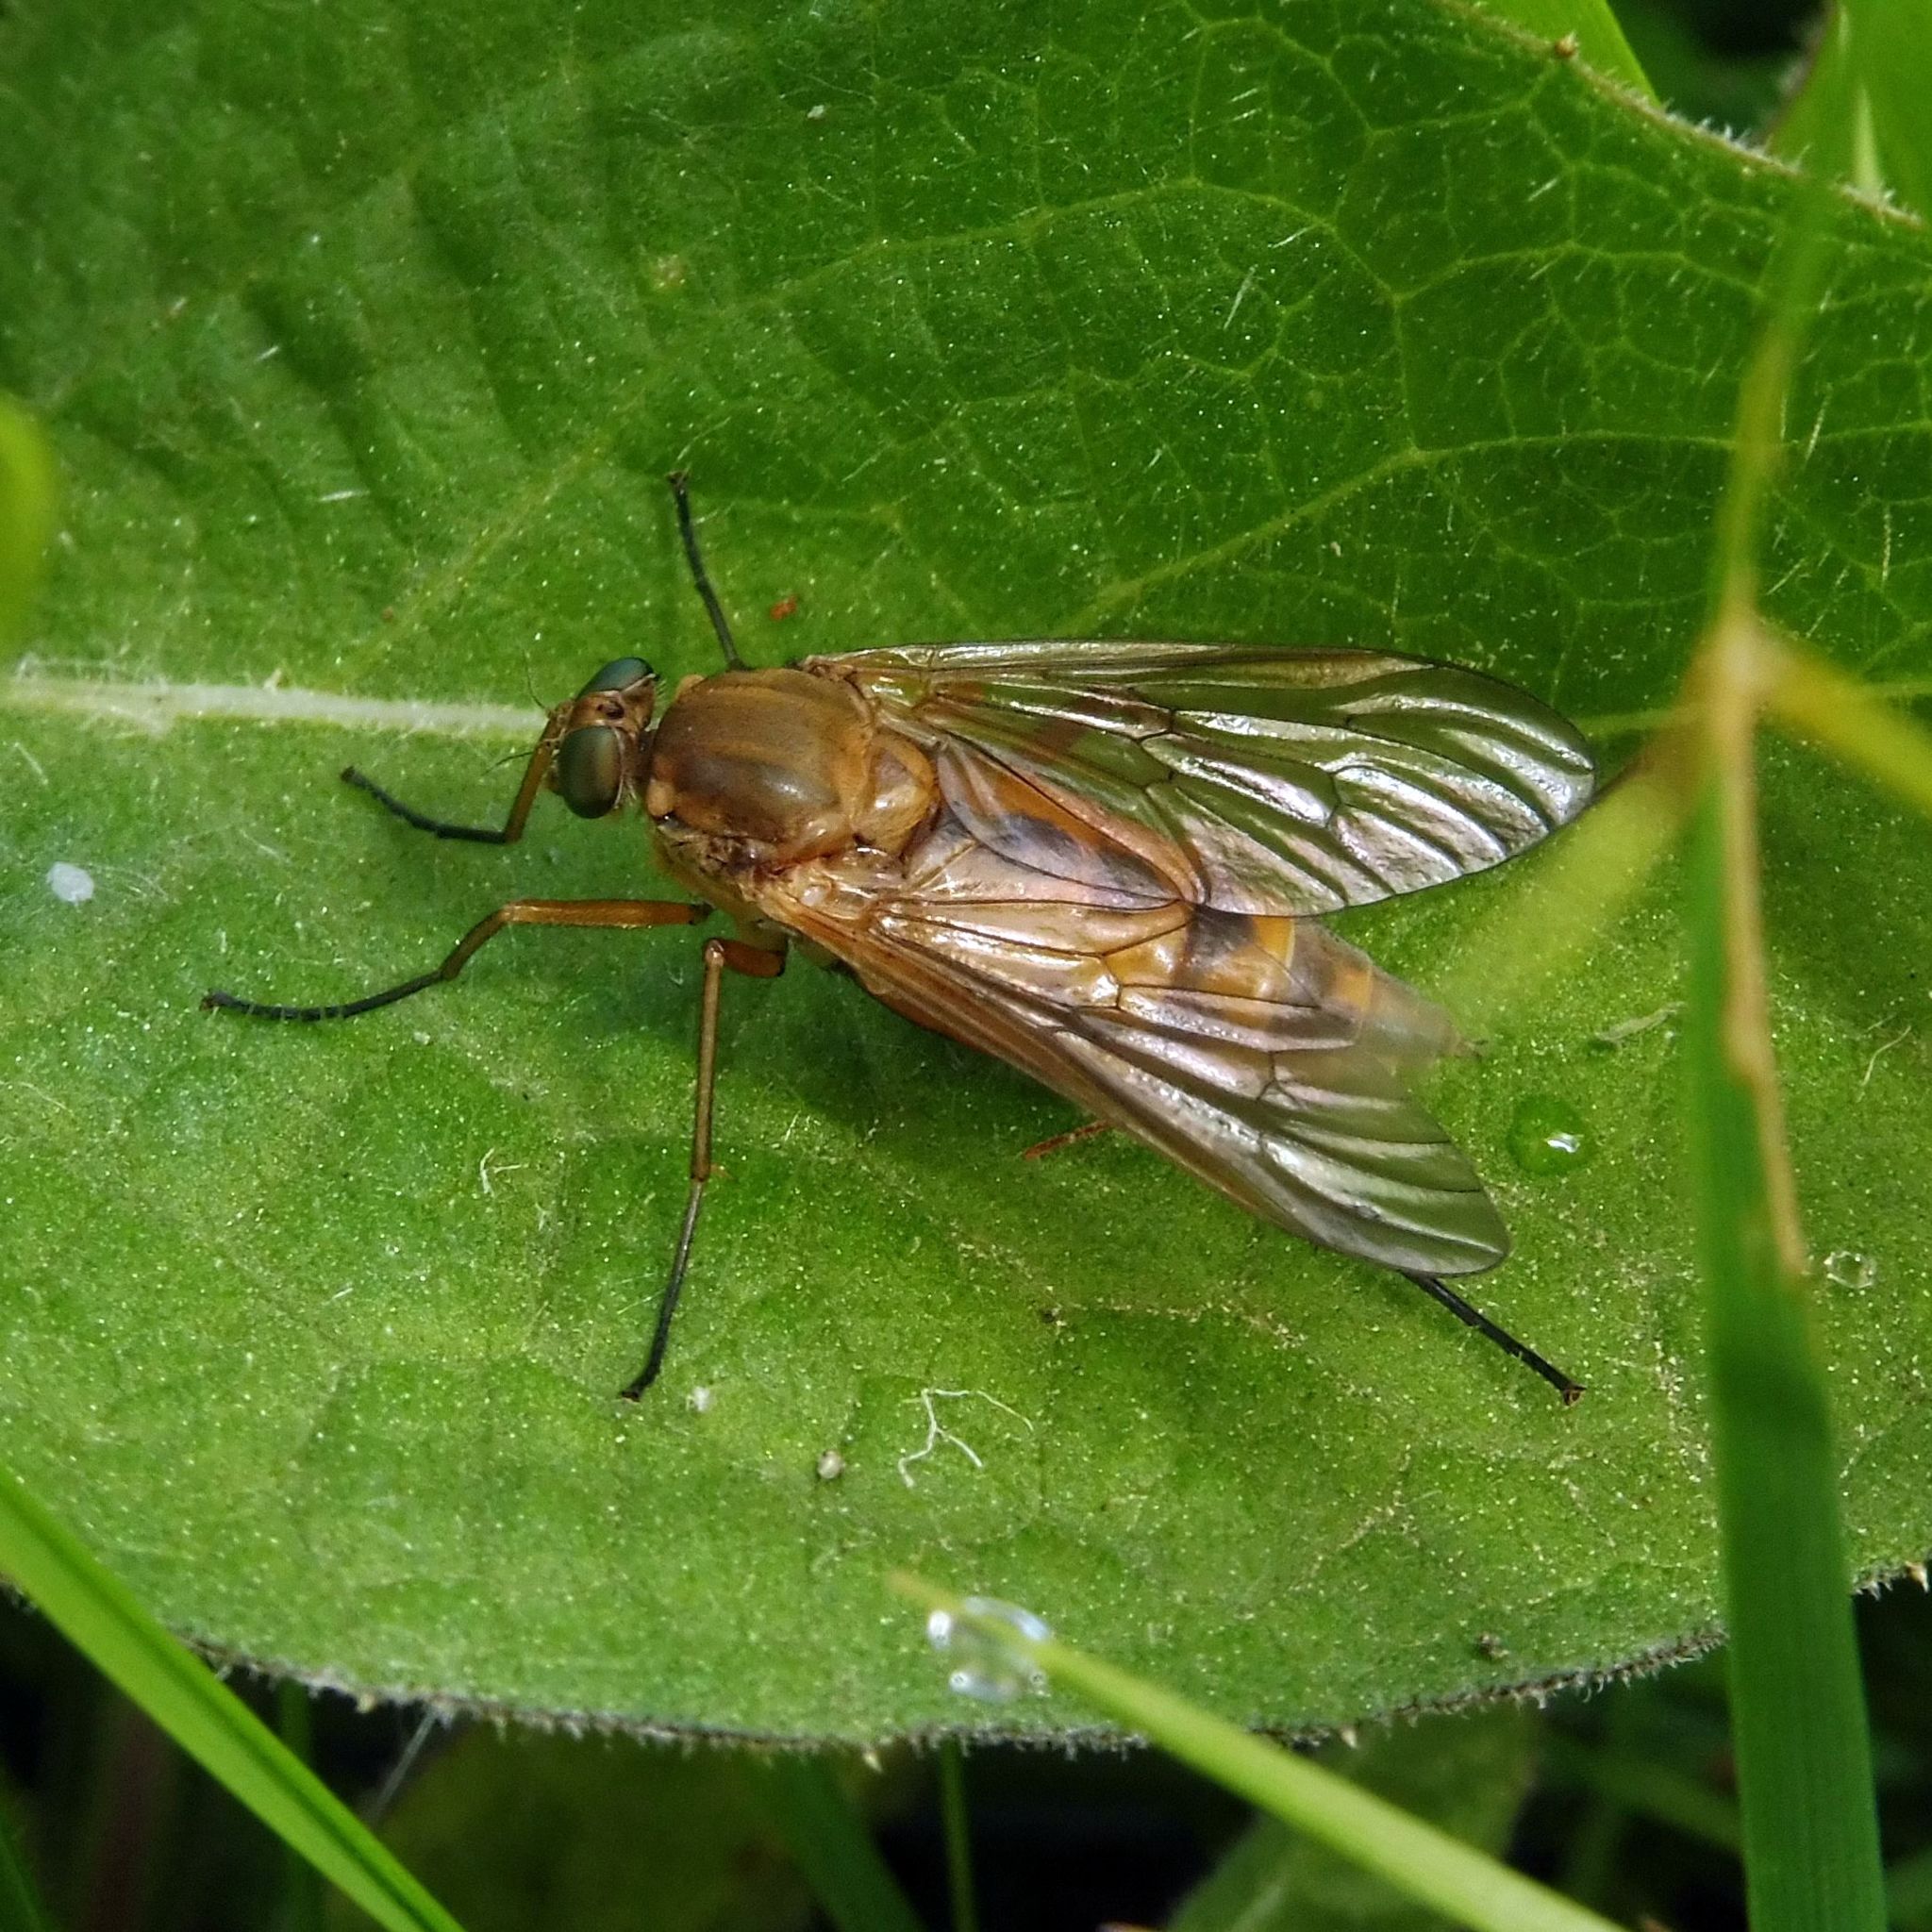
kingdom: Animalia
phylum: Arthropoda
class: Insecta
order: Diptera
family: Rhagionidae
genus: Rhagio
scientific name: Rhagio tringaria
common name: Marsh snipefly
